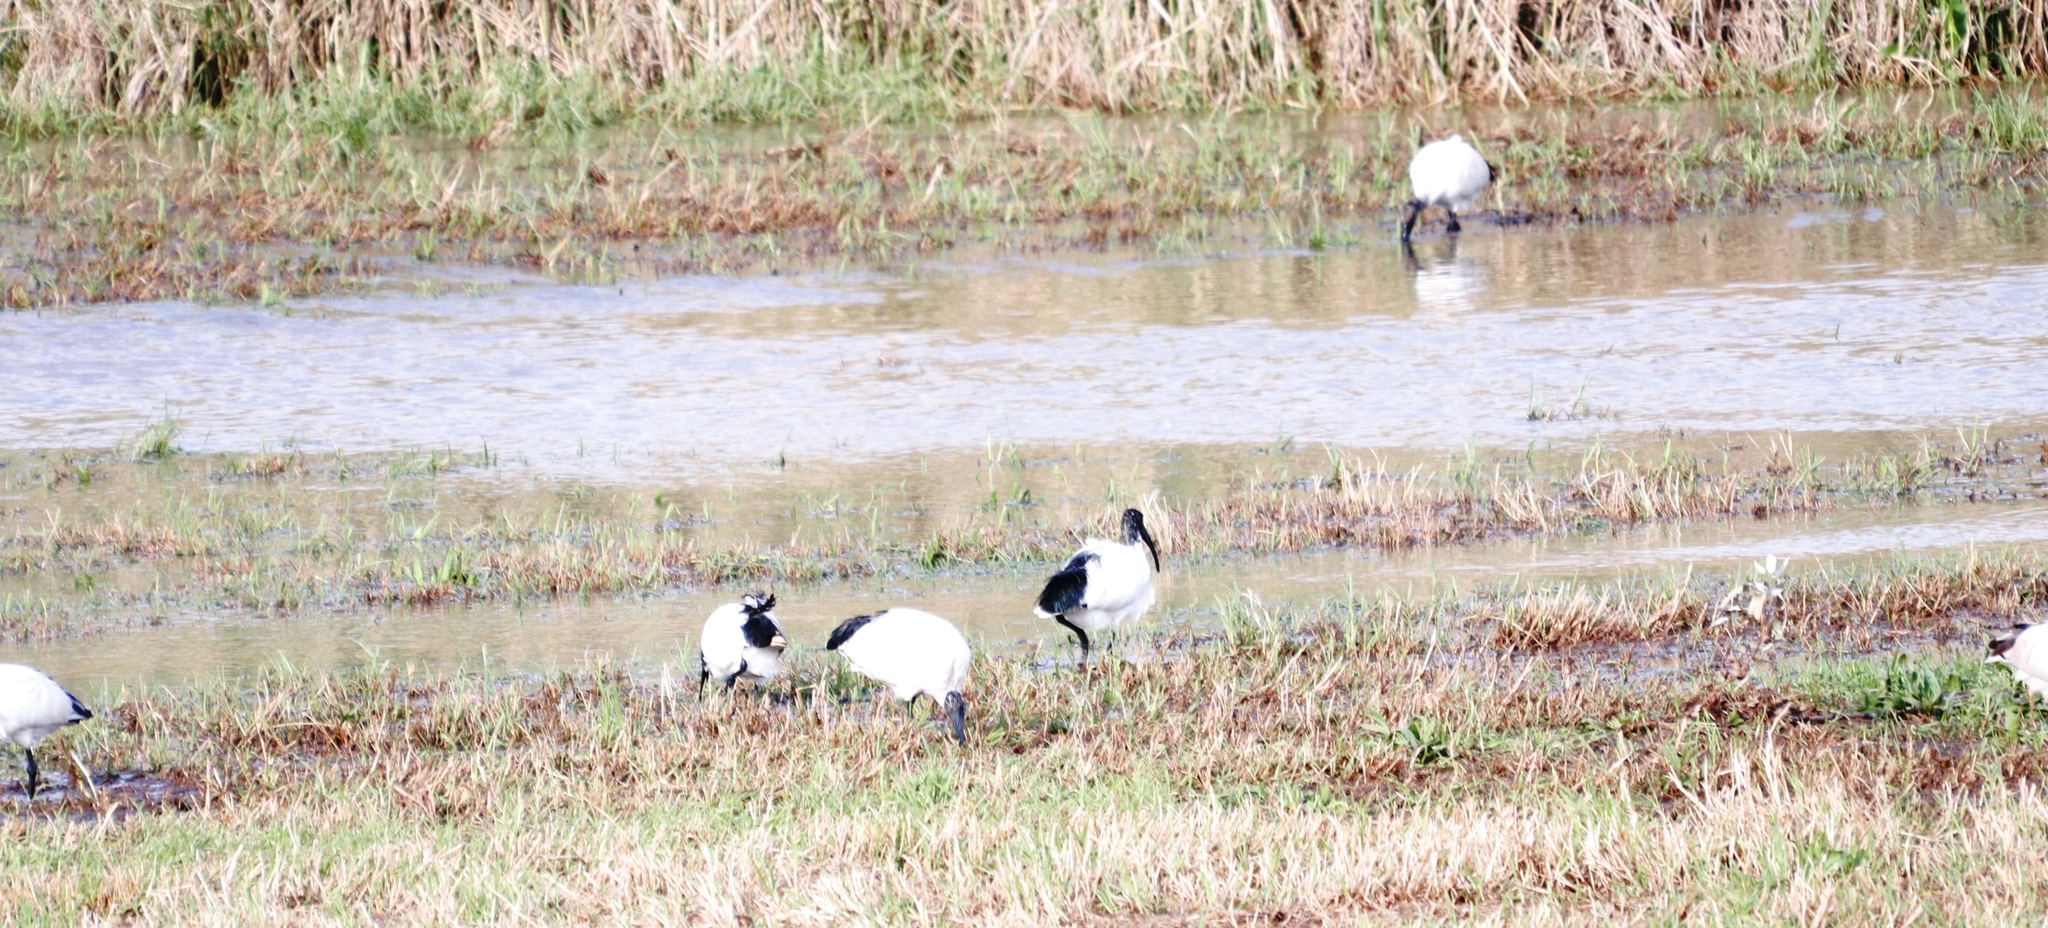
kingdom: Animalia
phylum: Chordata
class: Aves
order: Pelecaniformes
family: Threskiornithidae
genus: Threskiornis
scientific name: Threskiornis aethiopicus
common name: Sacred ibis
